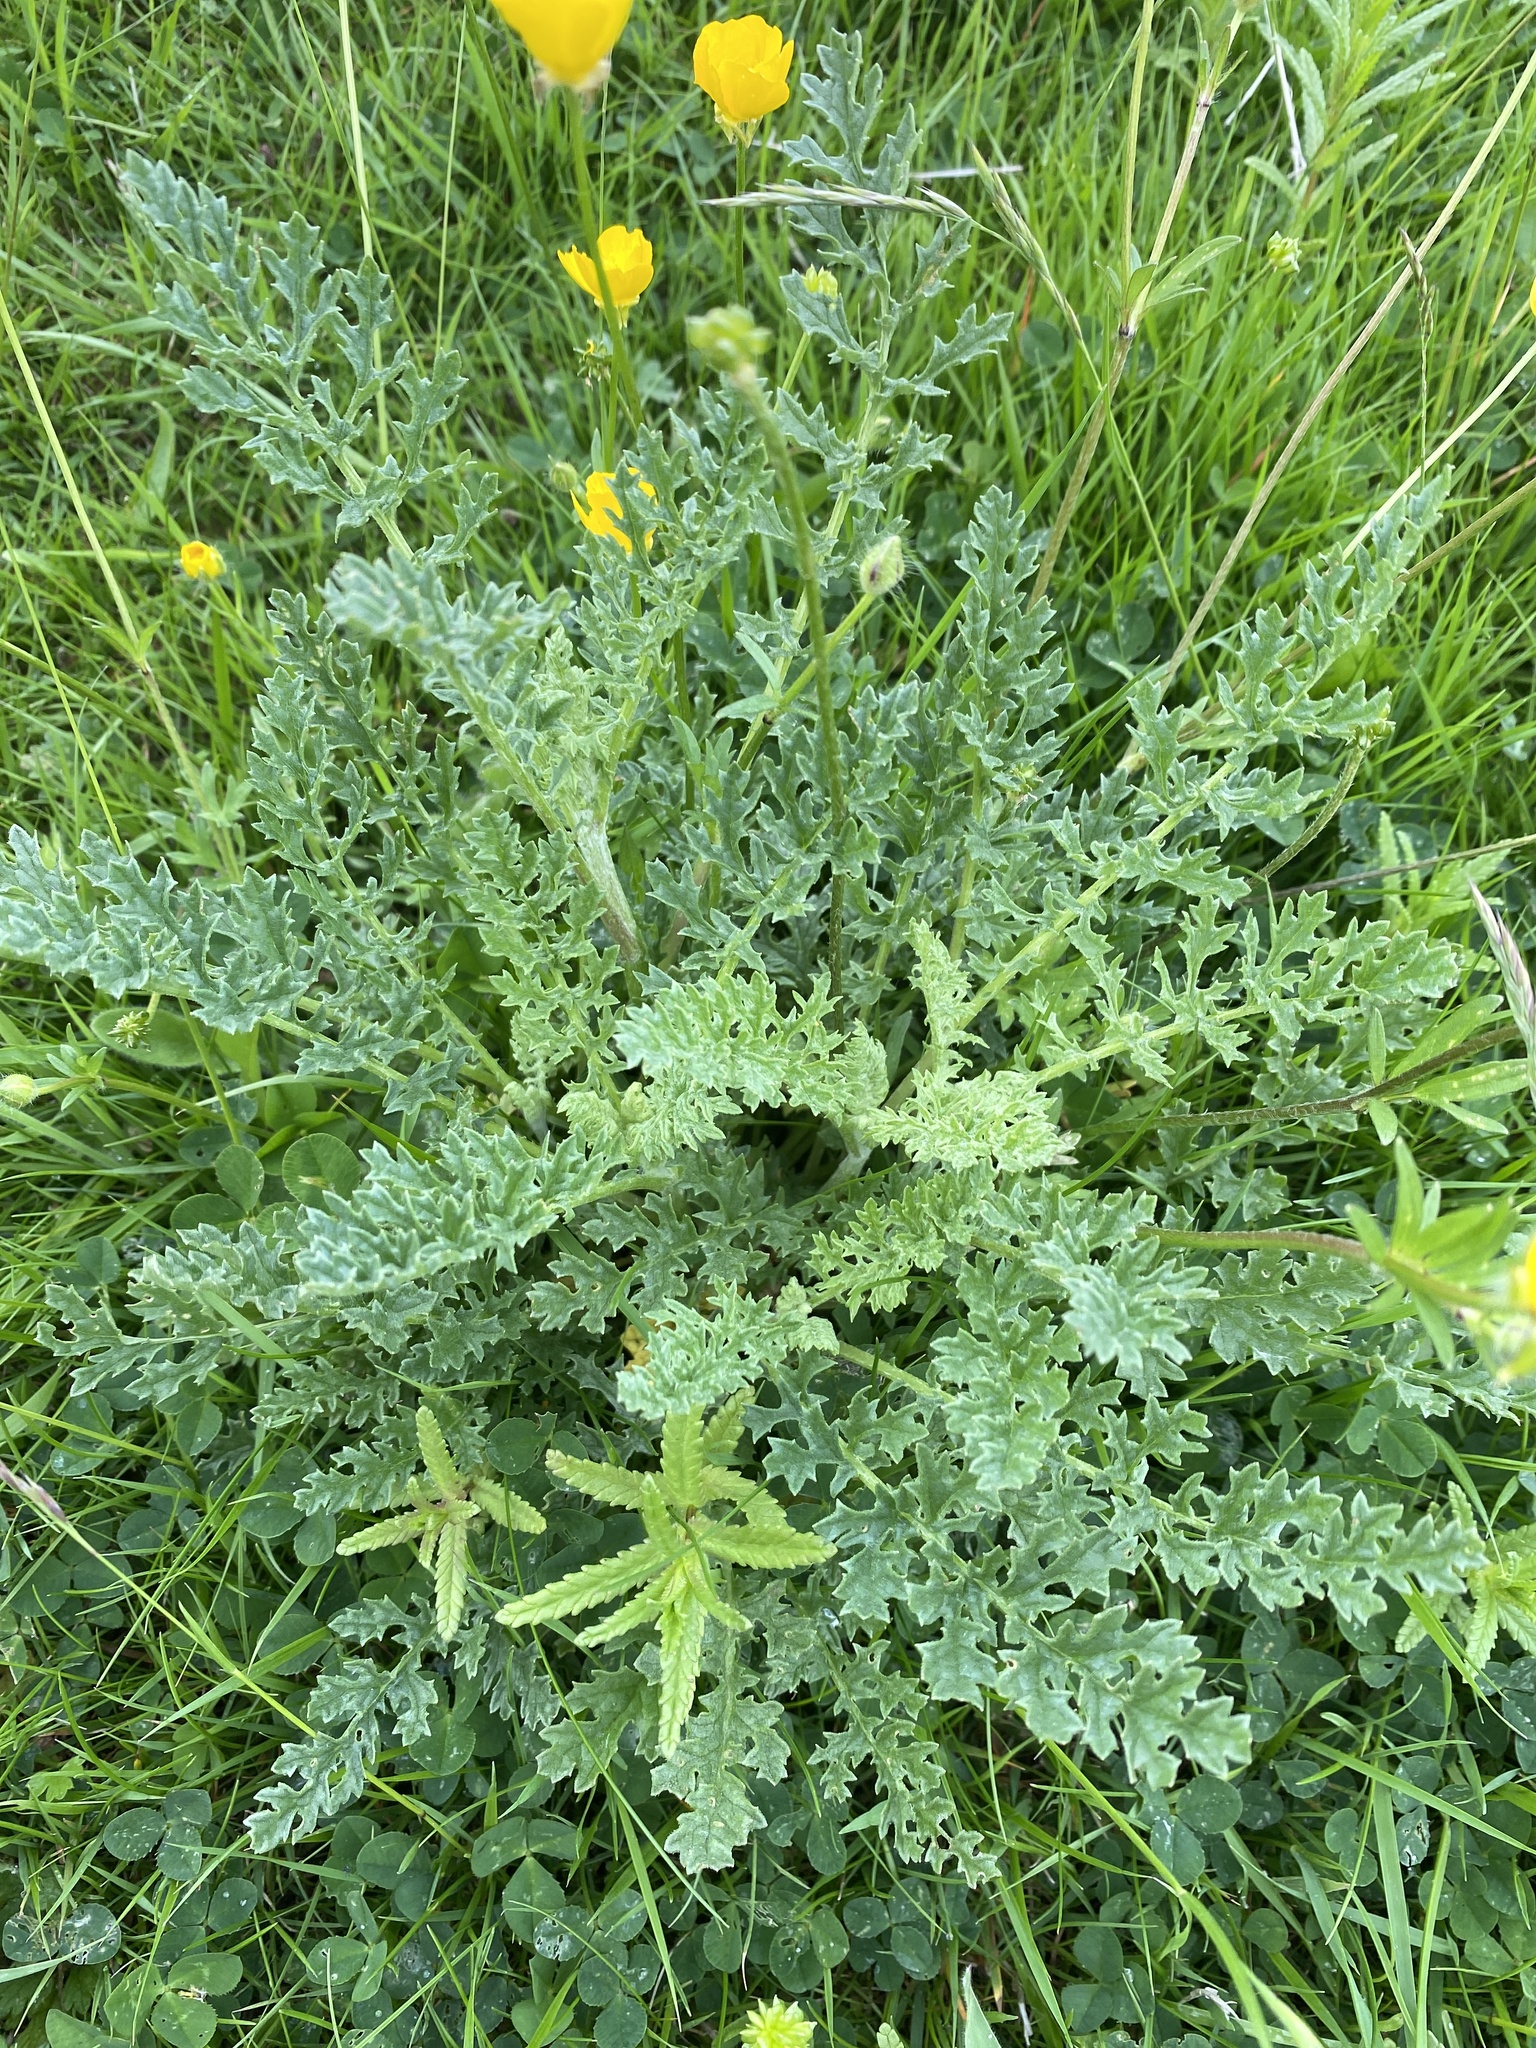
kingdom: Plantae
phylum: Tracheophyta
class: Magnoliopsida
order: Asterales
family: Asteraceae
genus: Jacobaea
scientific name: Jacobaea vulgaris
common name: Stinking willie
